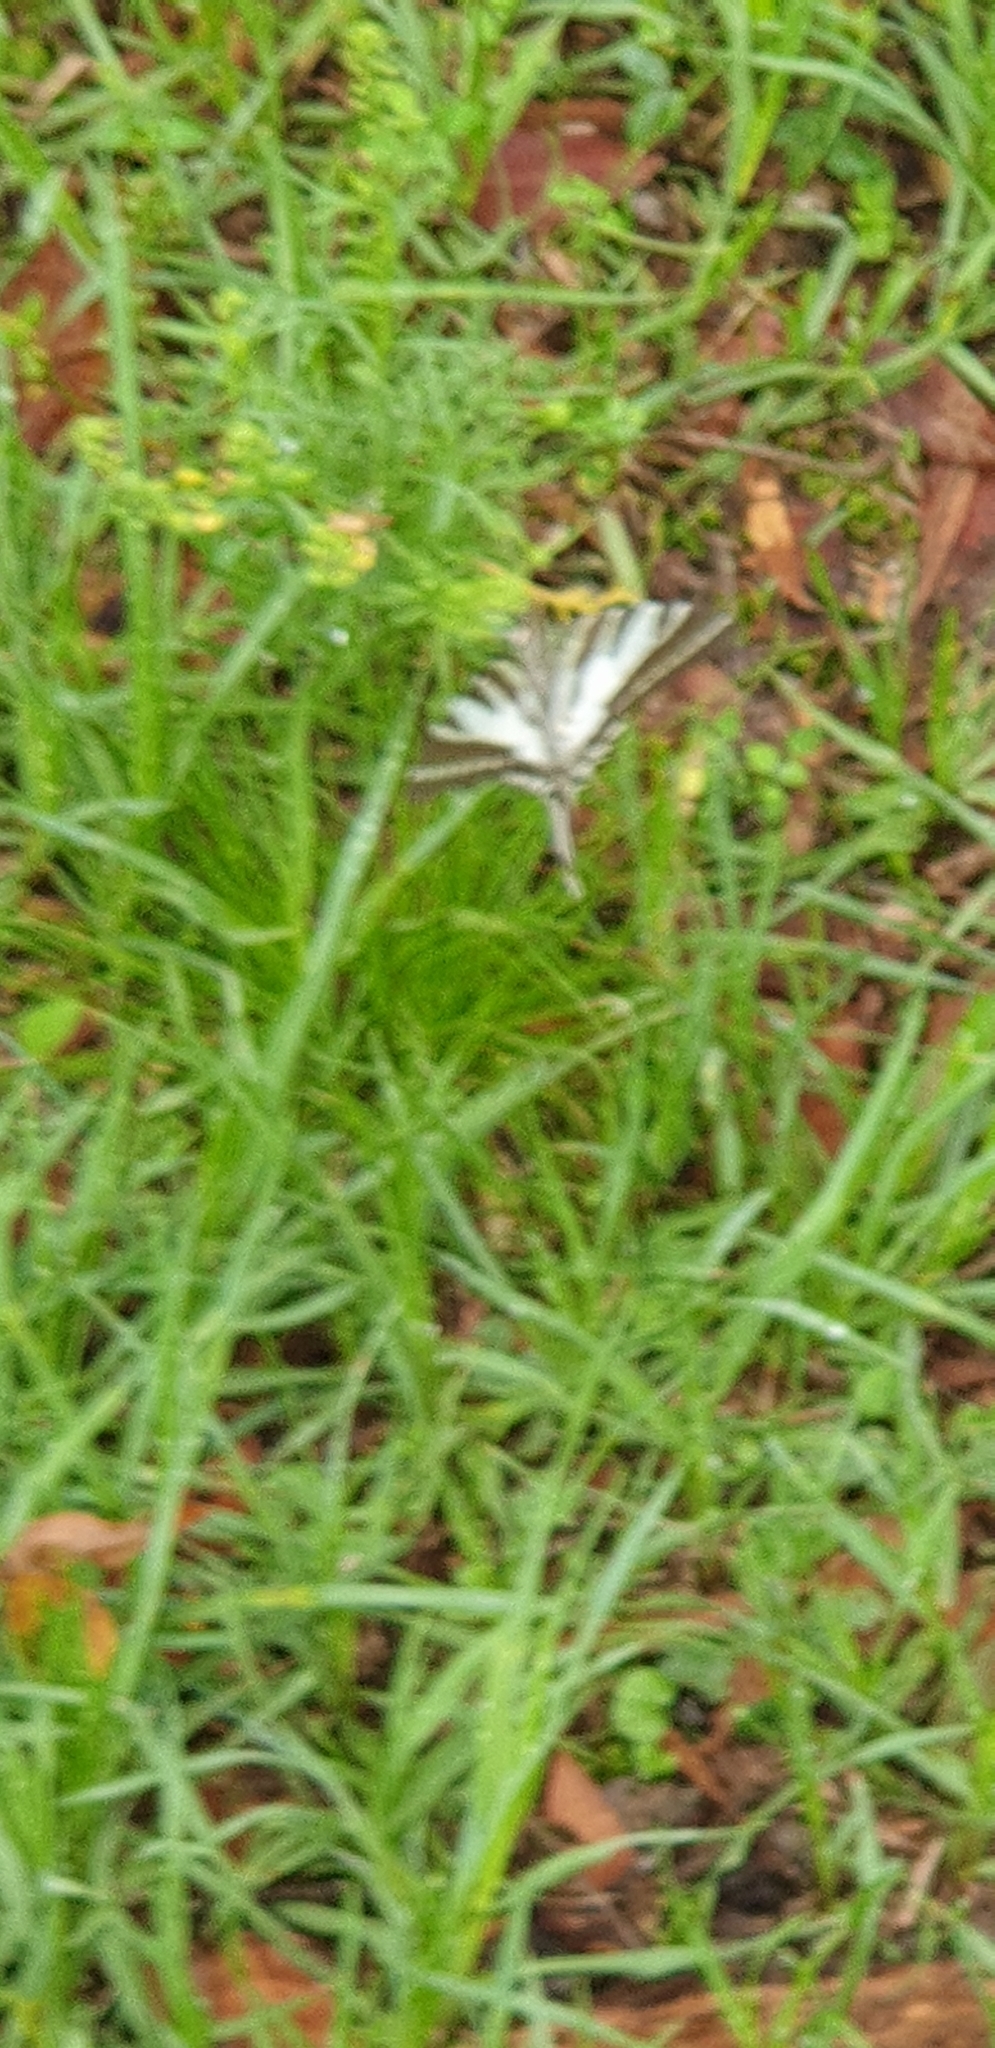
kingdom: Animalia
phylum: Arthropoda
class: Insecta
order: Lepidoptera
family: Papilionidae
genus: Protographium
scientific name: Protographium leosthenes
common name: Four-bar swordtail
